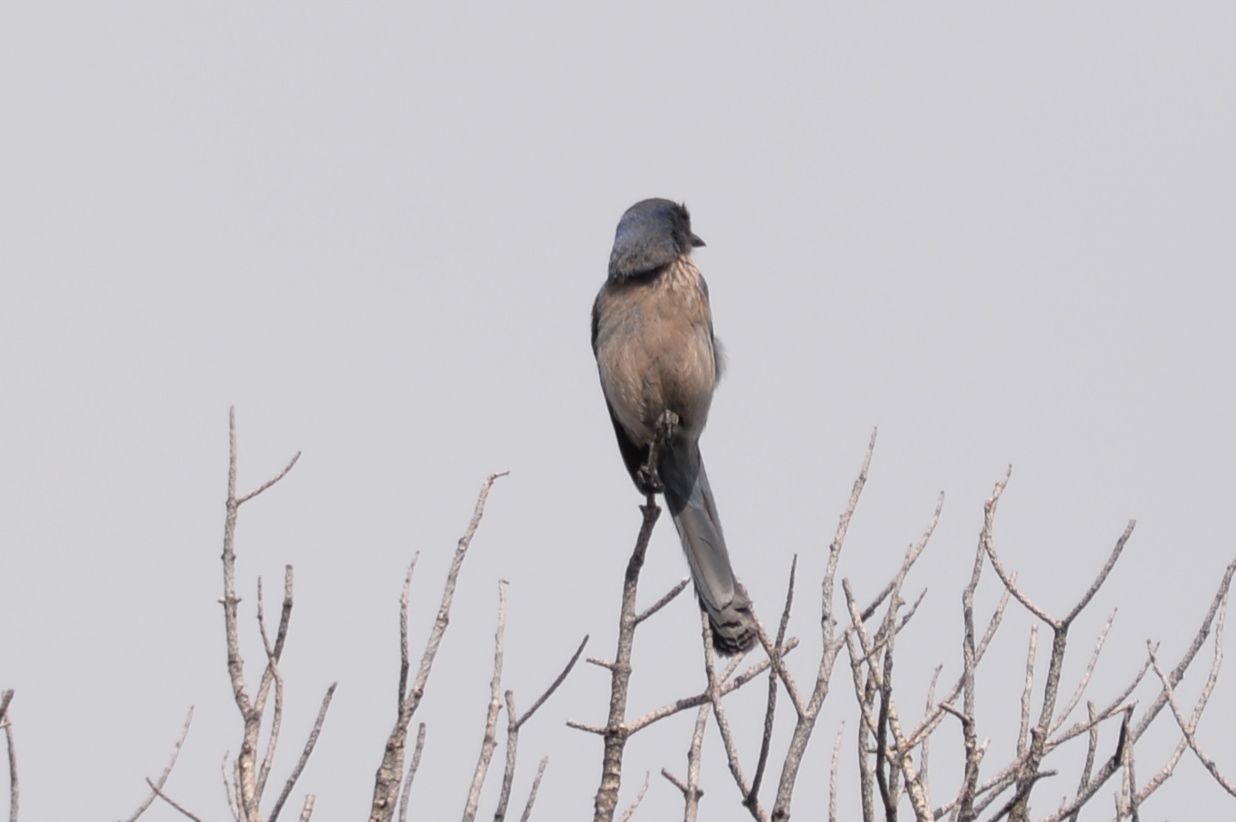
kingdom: Animalia
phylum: Chordata
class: Aves
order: Passeriformes
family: Corvidae
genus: Aphelocoma
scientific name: Aphelocoma woodhouseii
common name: Woodhouse's scrub-jay
